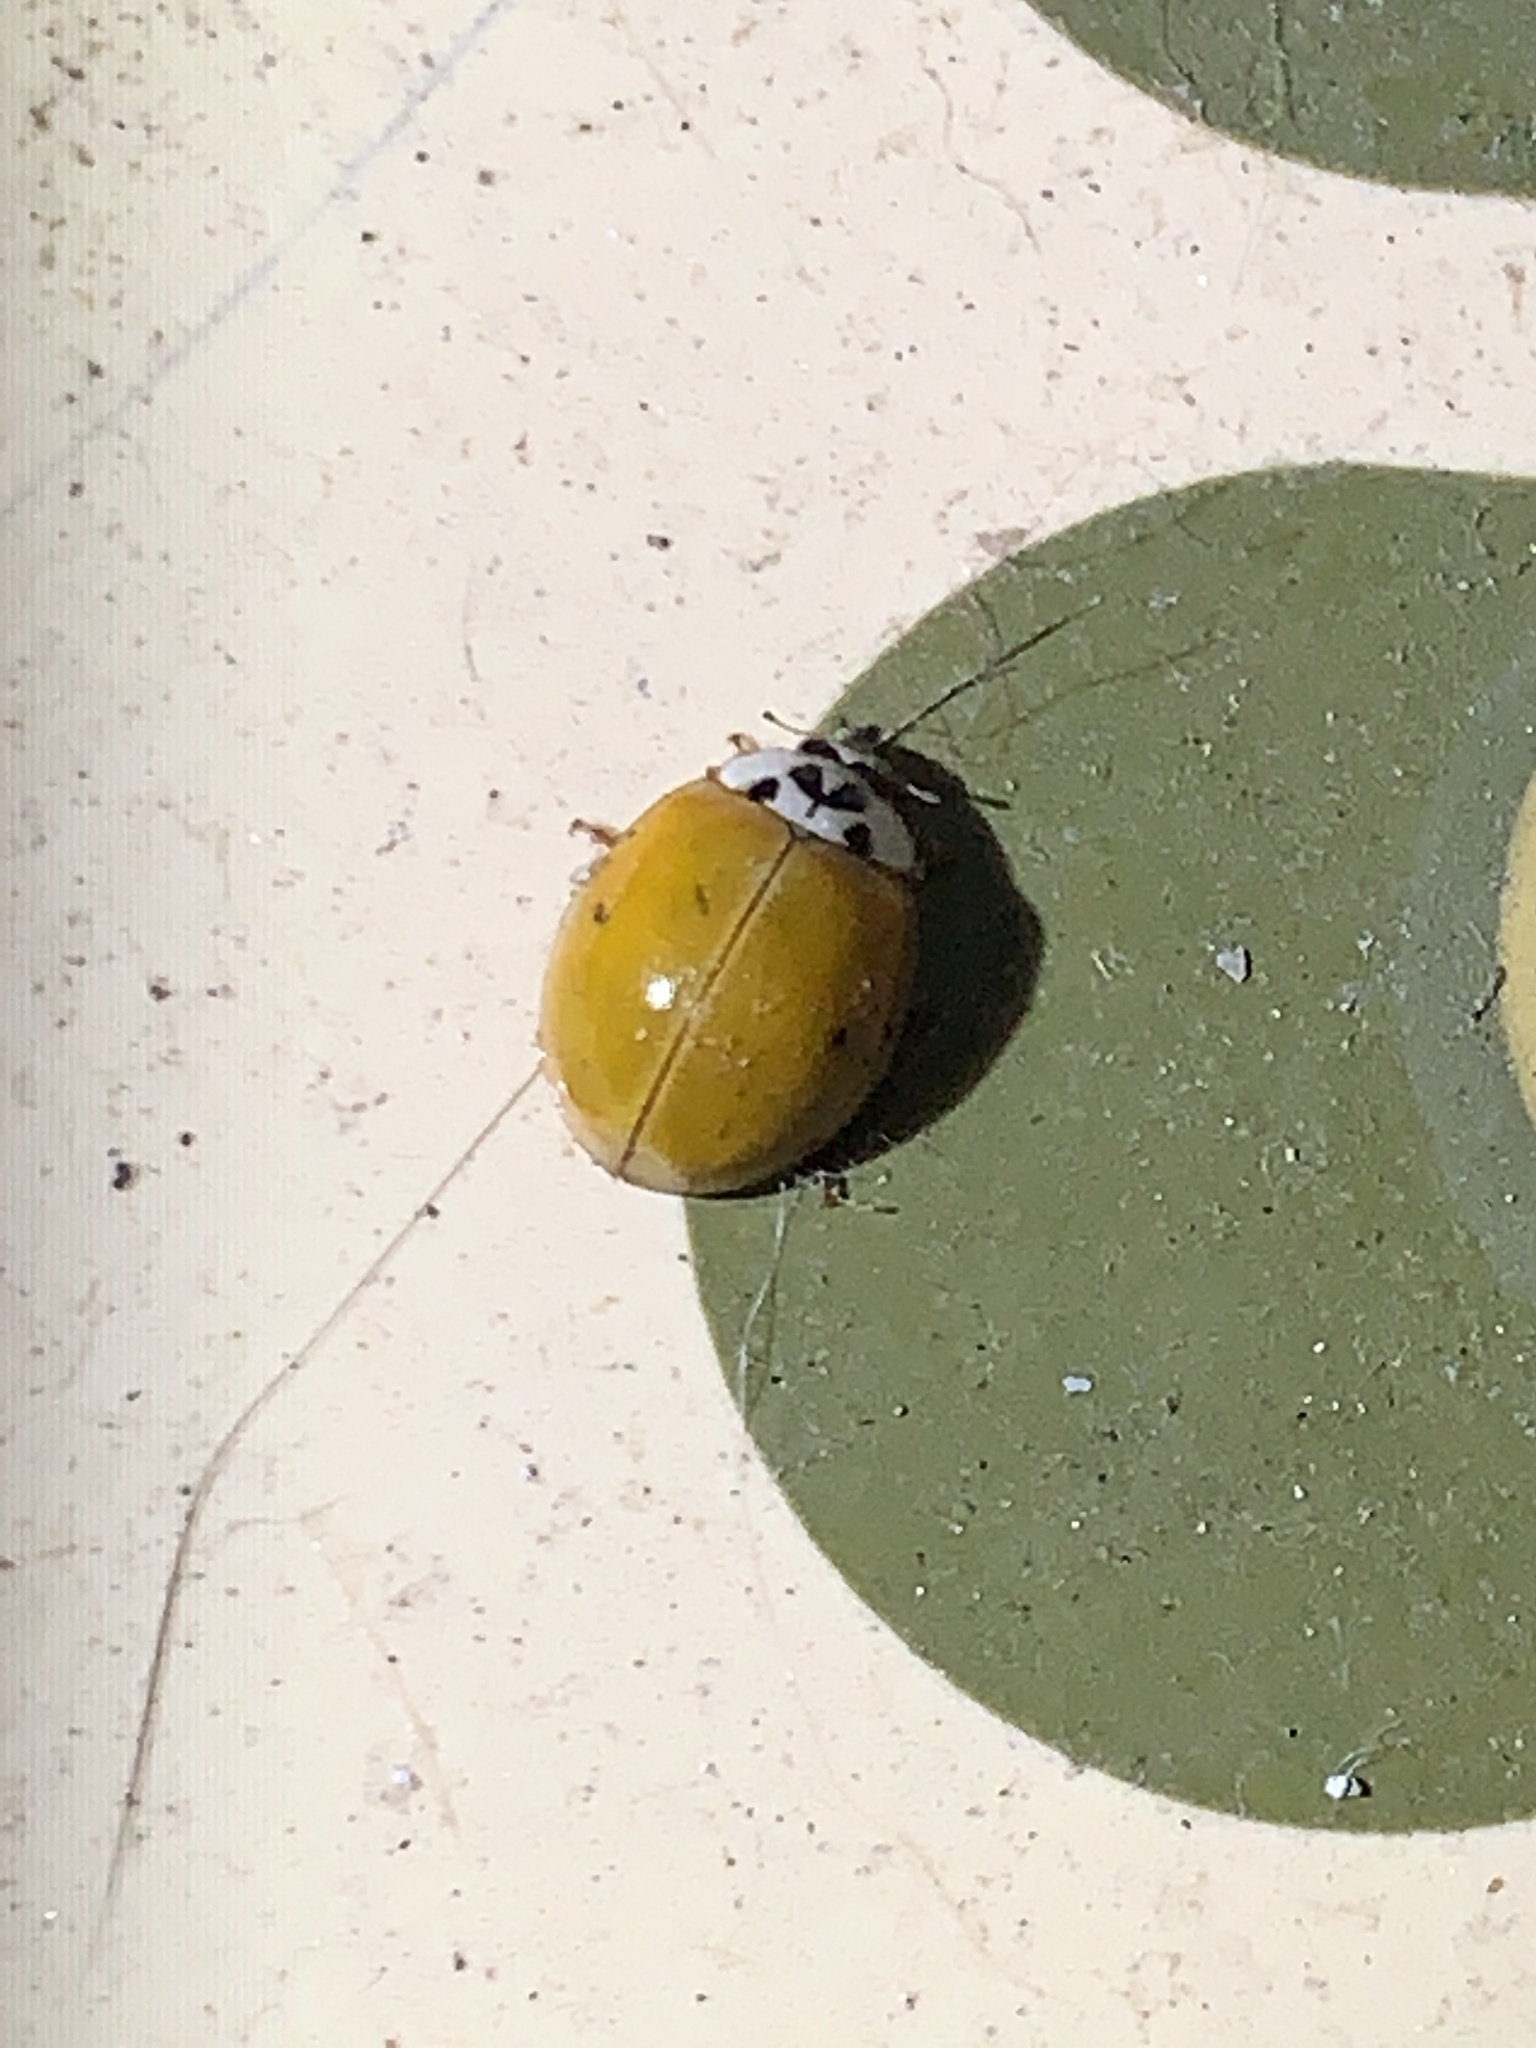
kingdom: Animalia
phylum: Arthropoda
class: Insecta
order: Coleoptera
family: Coccinellidae
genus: Harmonia
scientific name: Harmonia axyridis
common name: Harlequin ladybird
